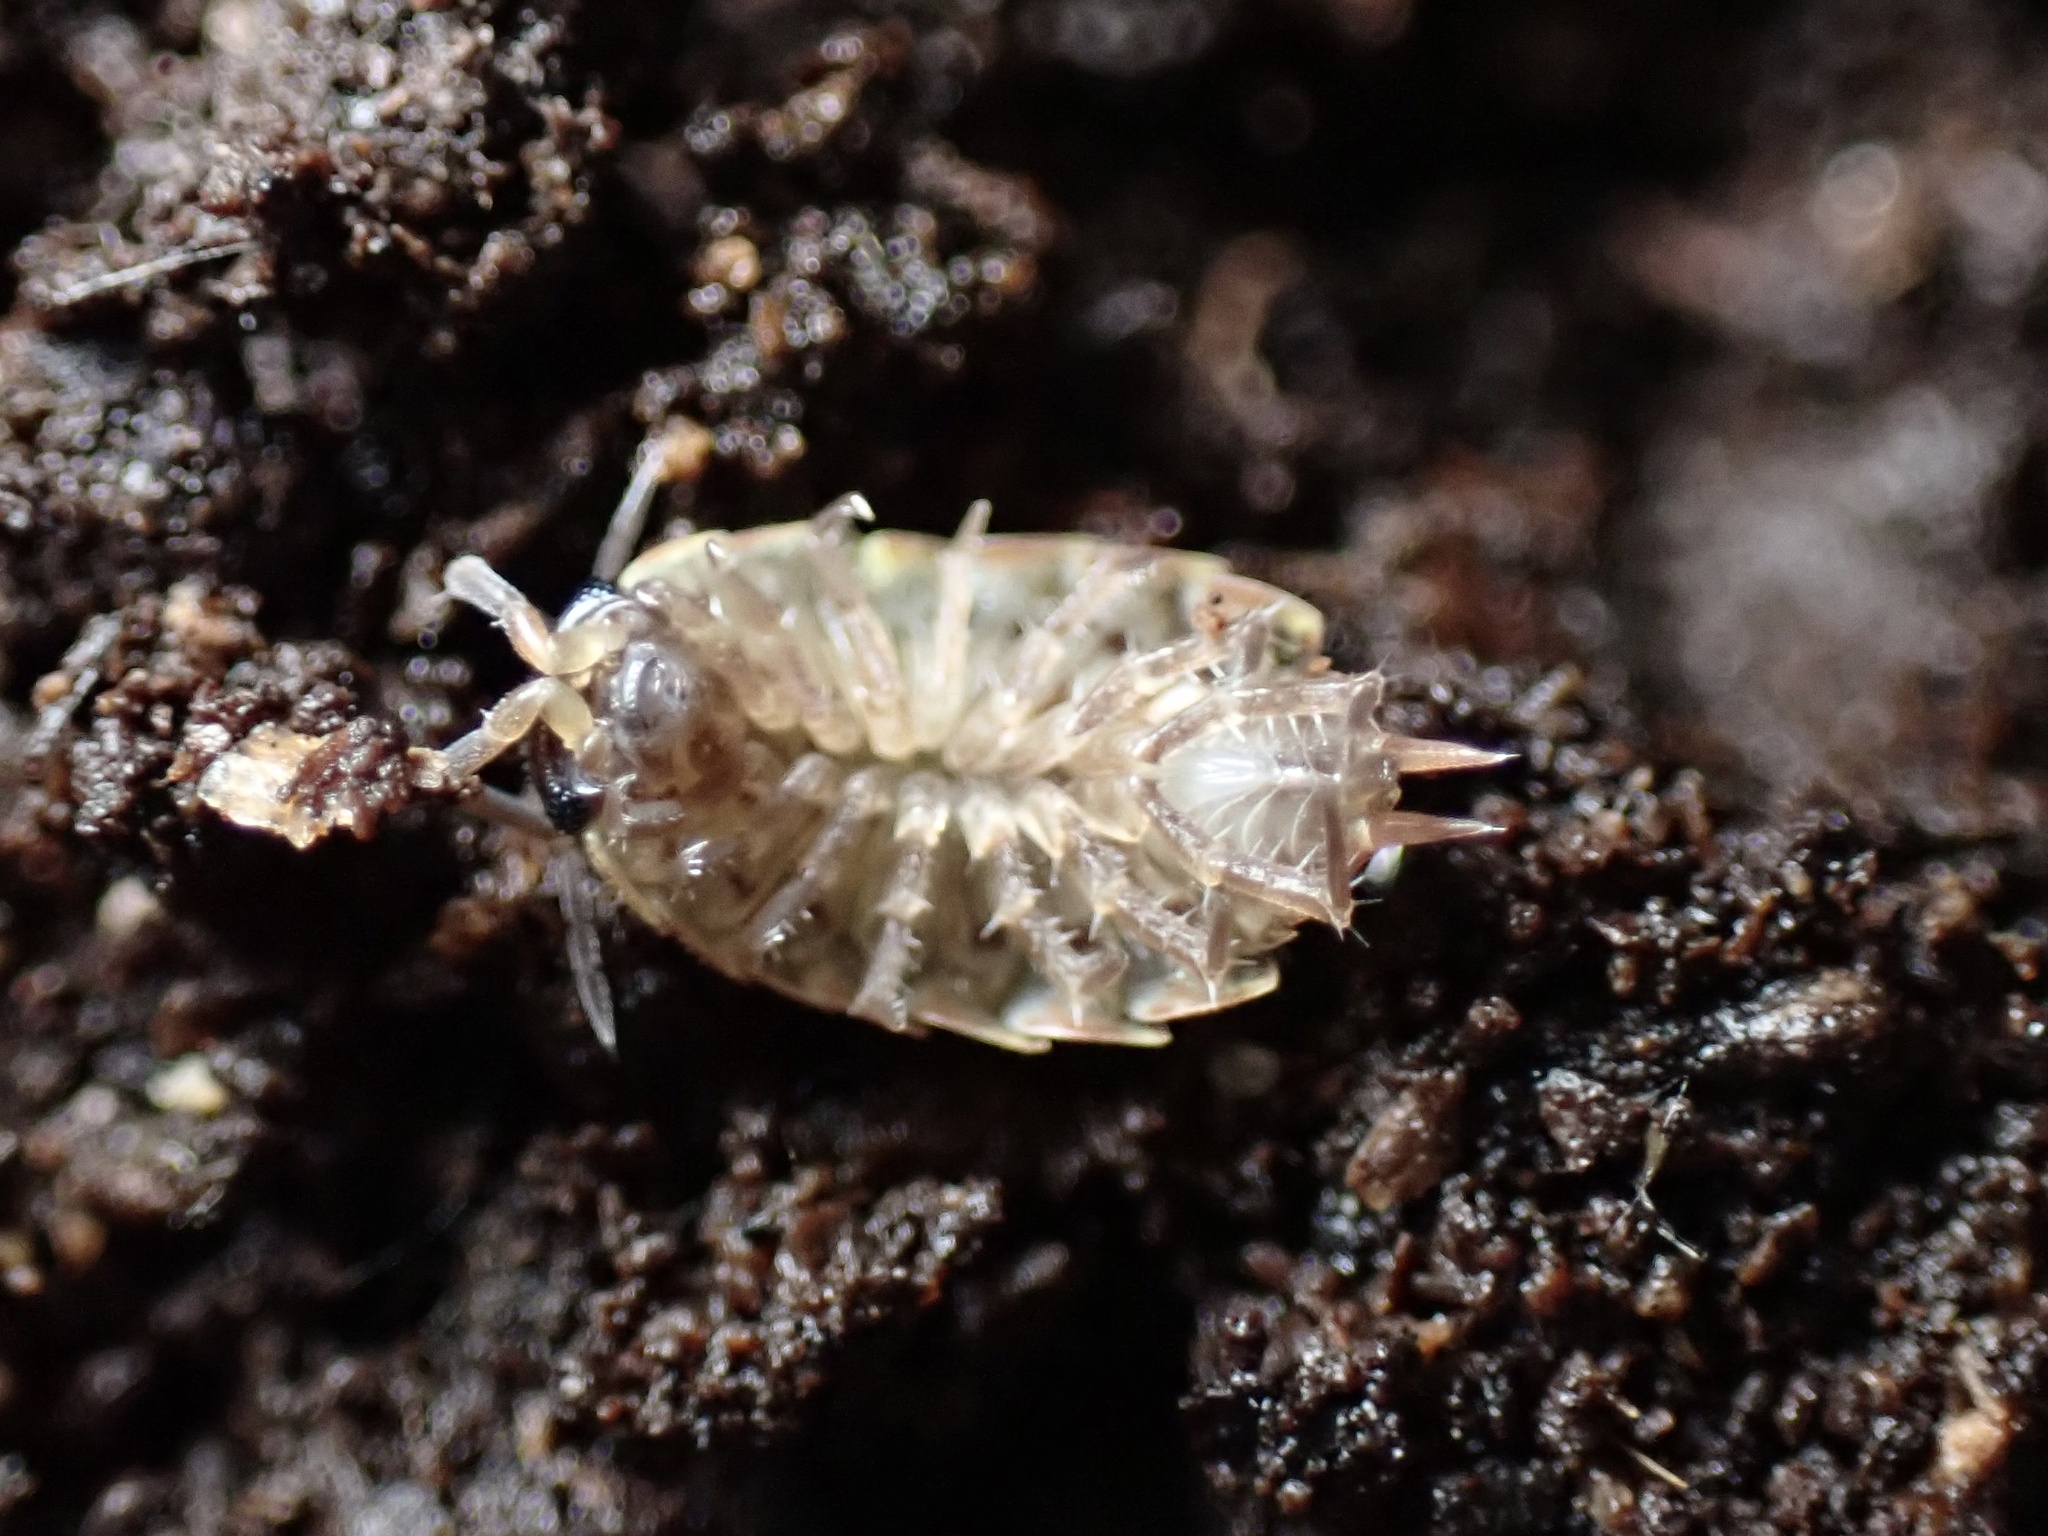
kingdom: Animalia
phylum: Arthropoda
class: Malacostraca
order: Isopoda
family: Philosciidae
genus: Philoscia
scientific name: Philoscia muscorum
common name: Common striped woodlouse
